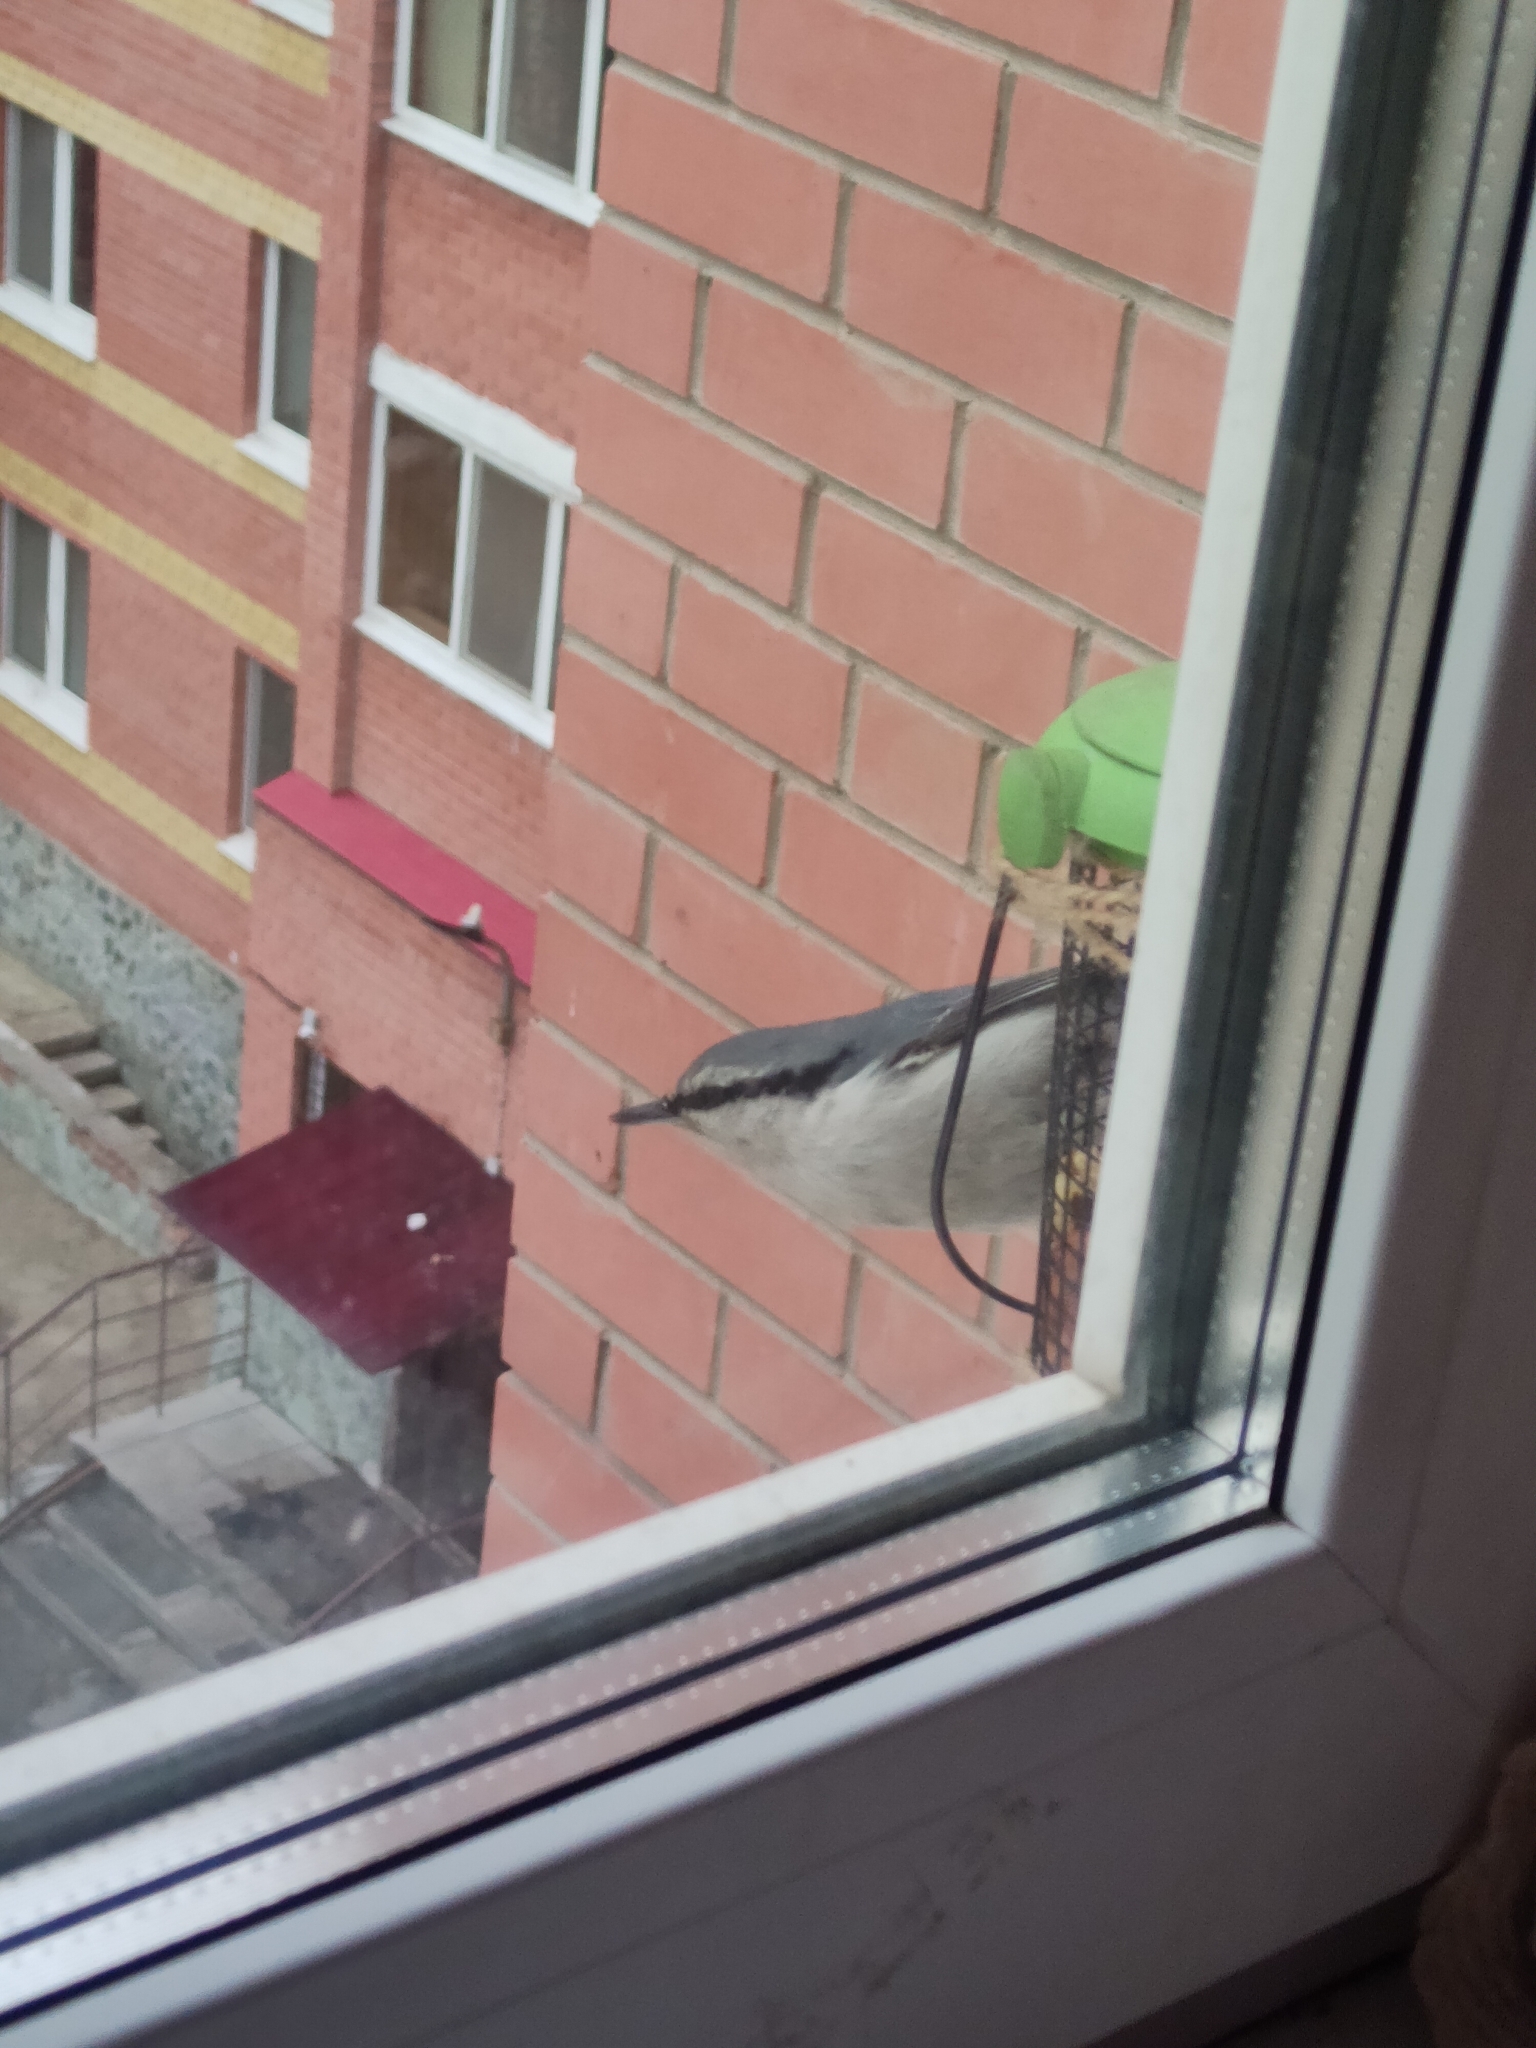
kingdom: Animalia
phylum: Chordata
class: Aves
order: Passeriformes
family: Sittidae
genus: Sitta
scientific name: Sitta europaea
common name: Eurasian nuthatch
